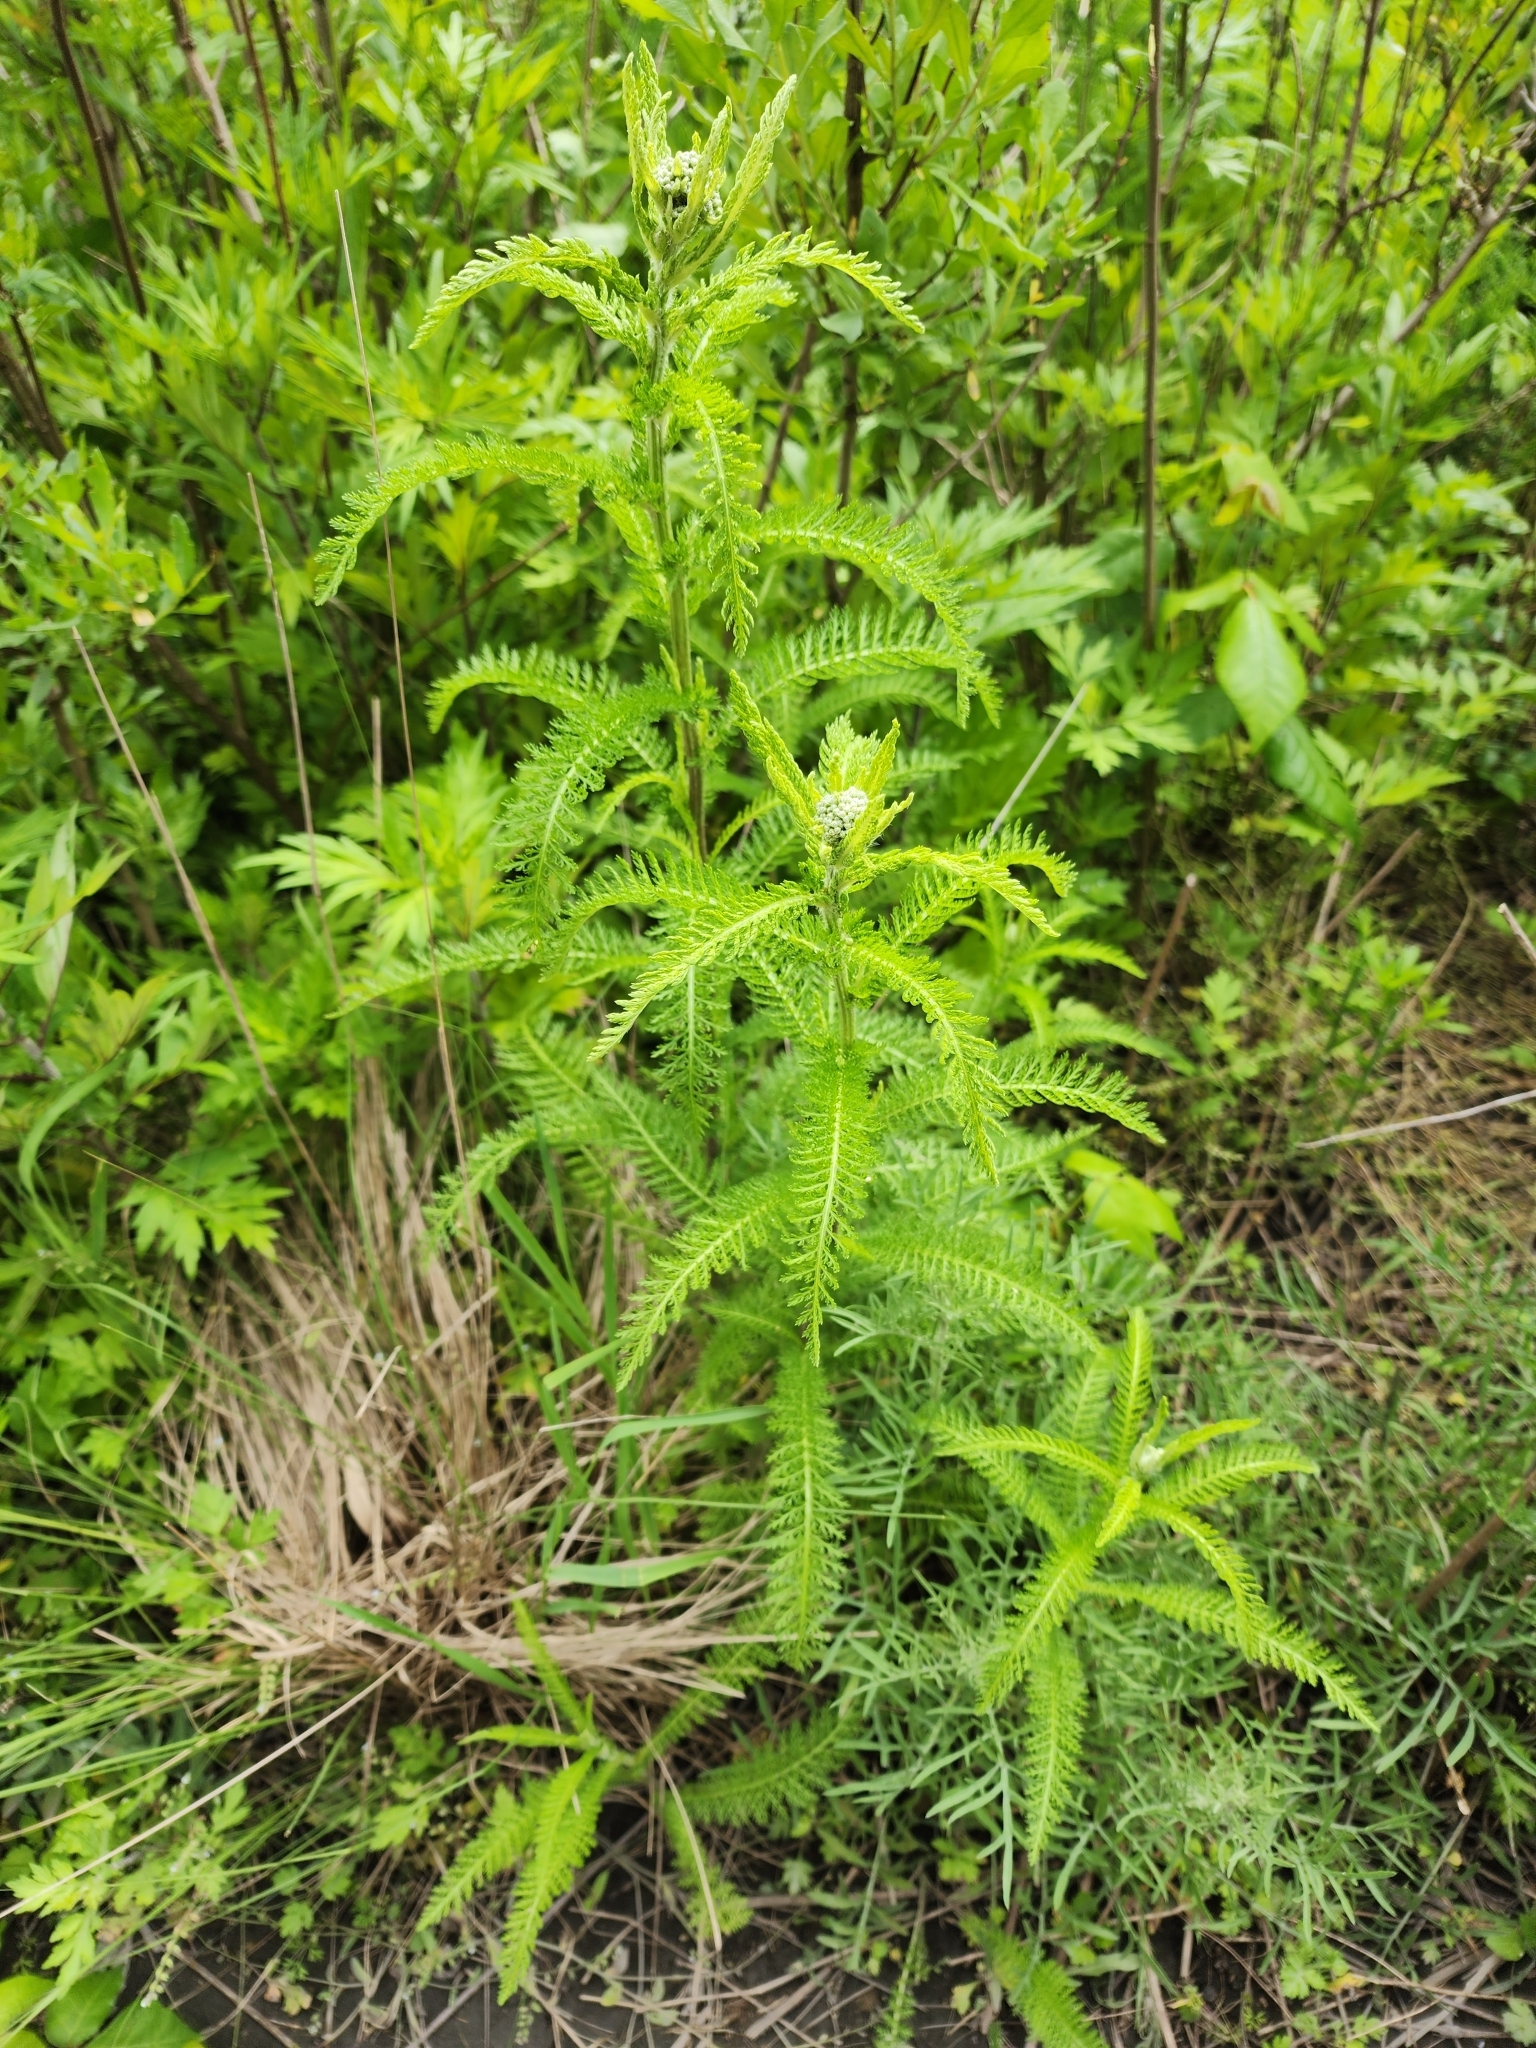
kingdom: Plantae
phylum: Tracheophyta
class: Magnoliopsida
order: Asterales
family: Asteraceae
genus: Achillea
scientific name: Achillea millefolium
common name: Yarrow
